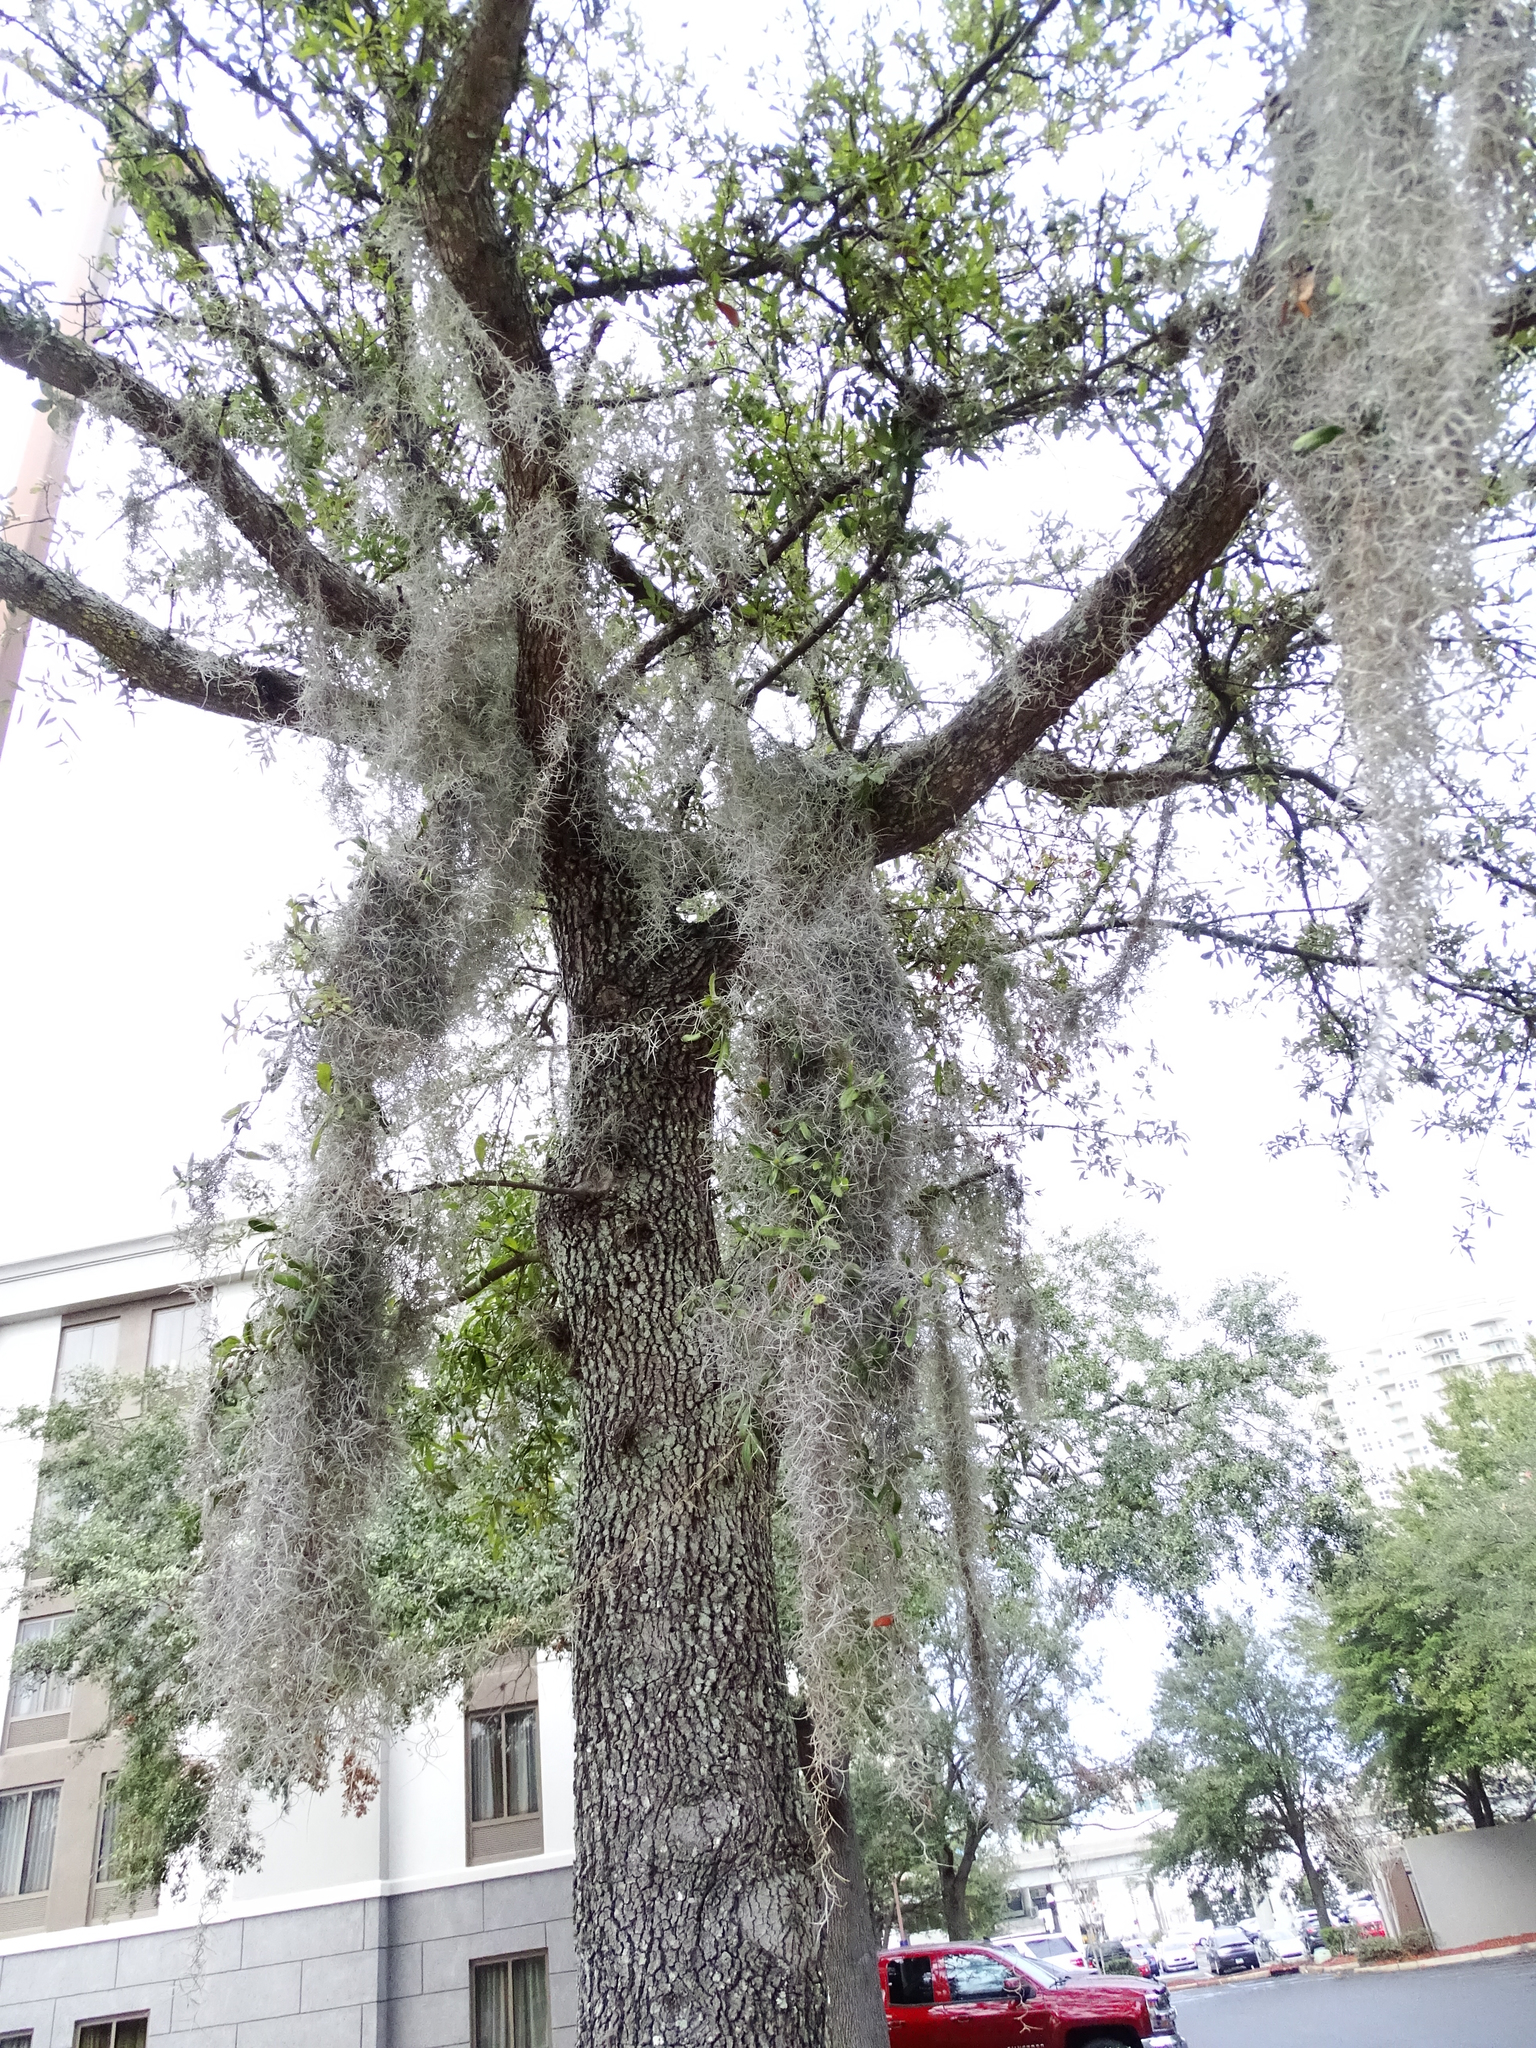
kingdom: Plantae
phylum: Tracheophyta
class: Liliopsida
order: Poales
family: Bromeliaceae
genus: Tillandsia
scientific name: Tillandsia usneoides
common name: Spanish moss
